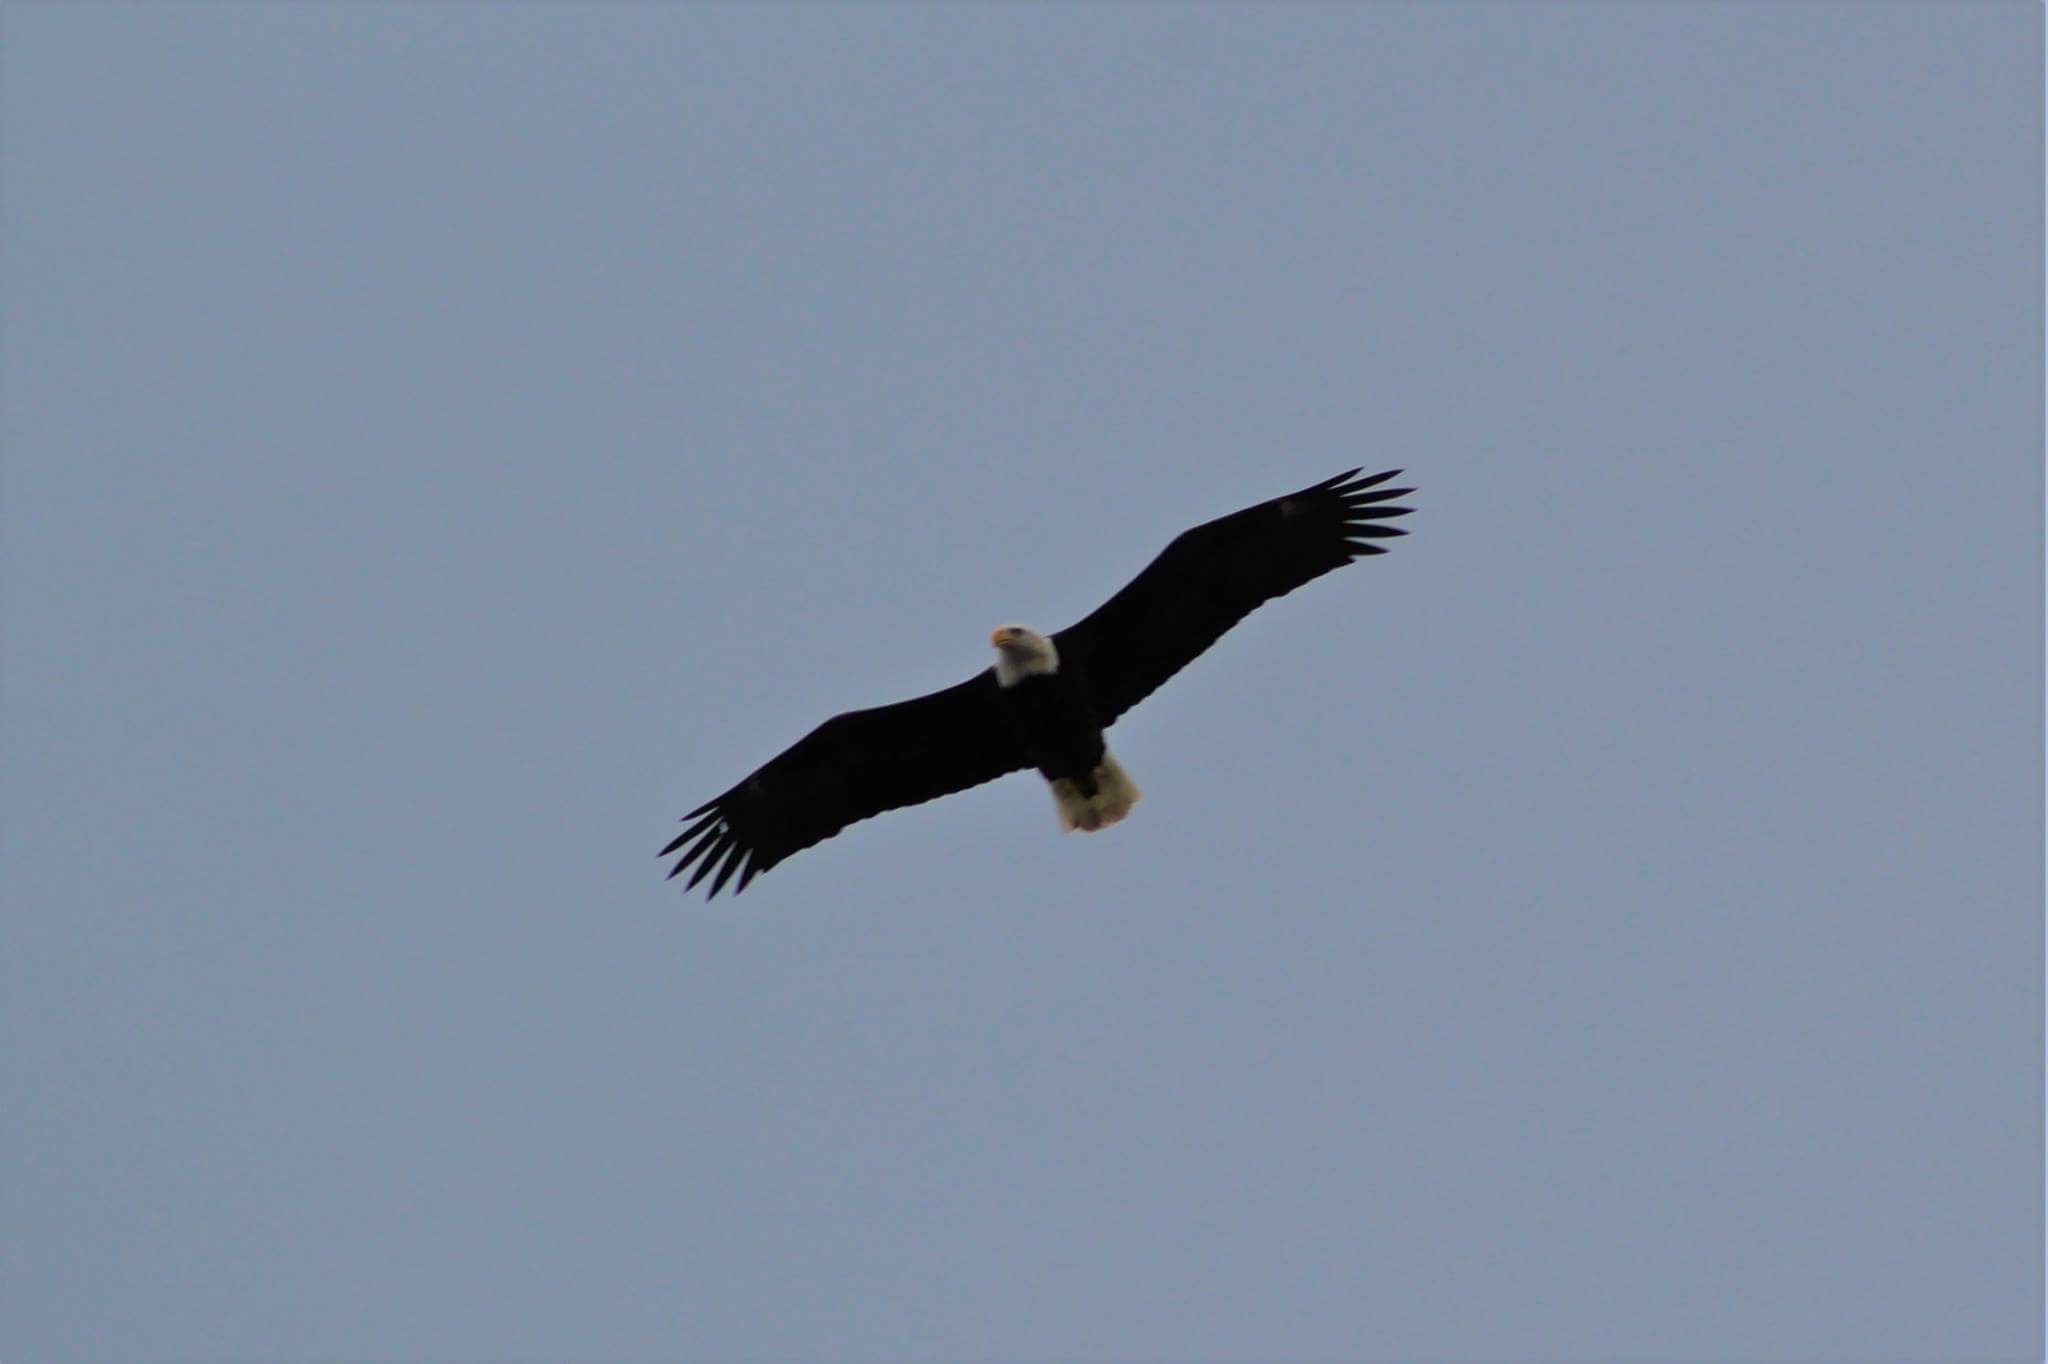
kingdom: Animalia
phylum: Chordata
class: Aves
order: Accipitriformes
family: Accipitridae
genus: Haliaeetus
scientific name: Haliaeetus leucocephalus
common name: Bald eagle
